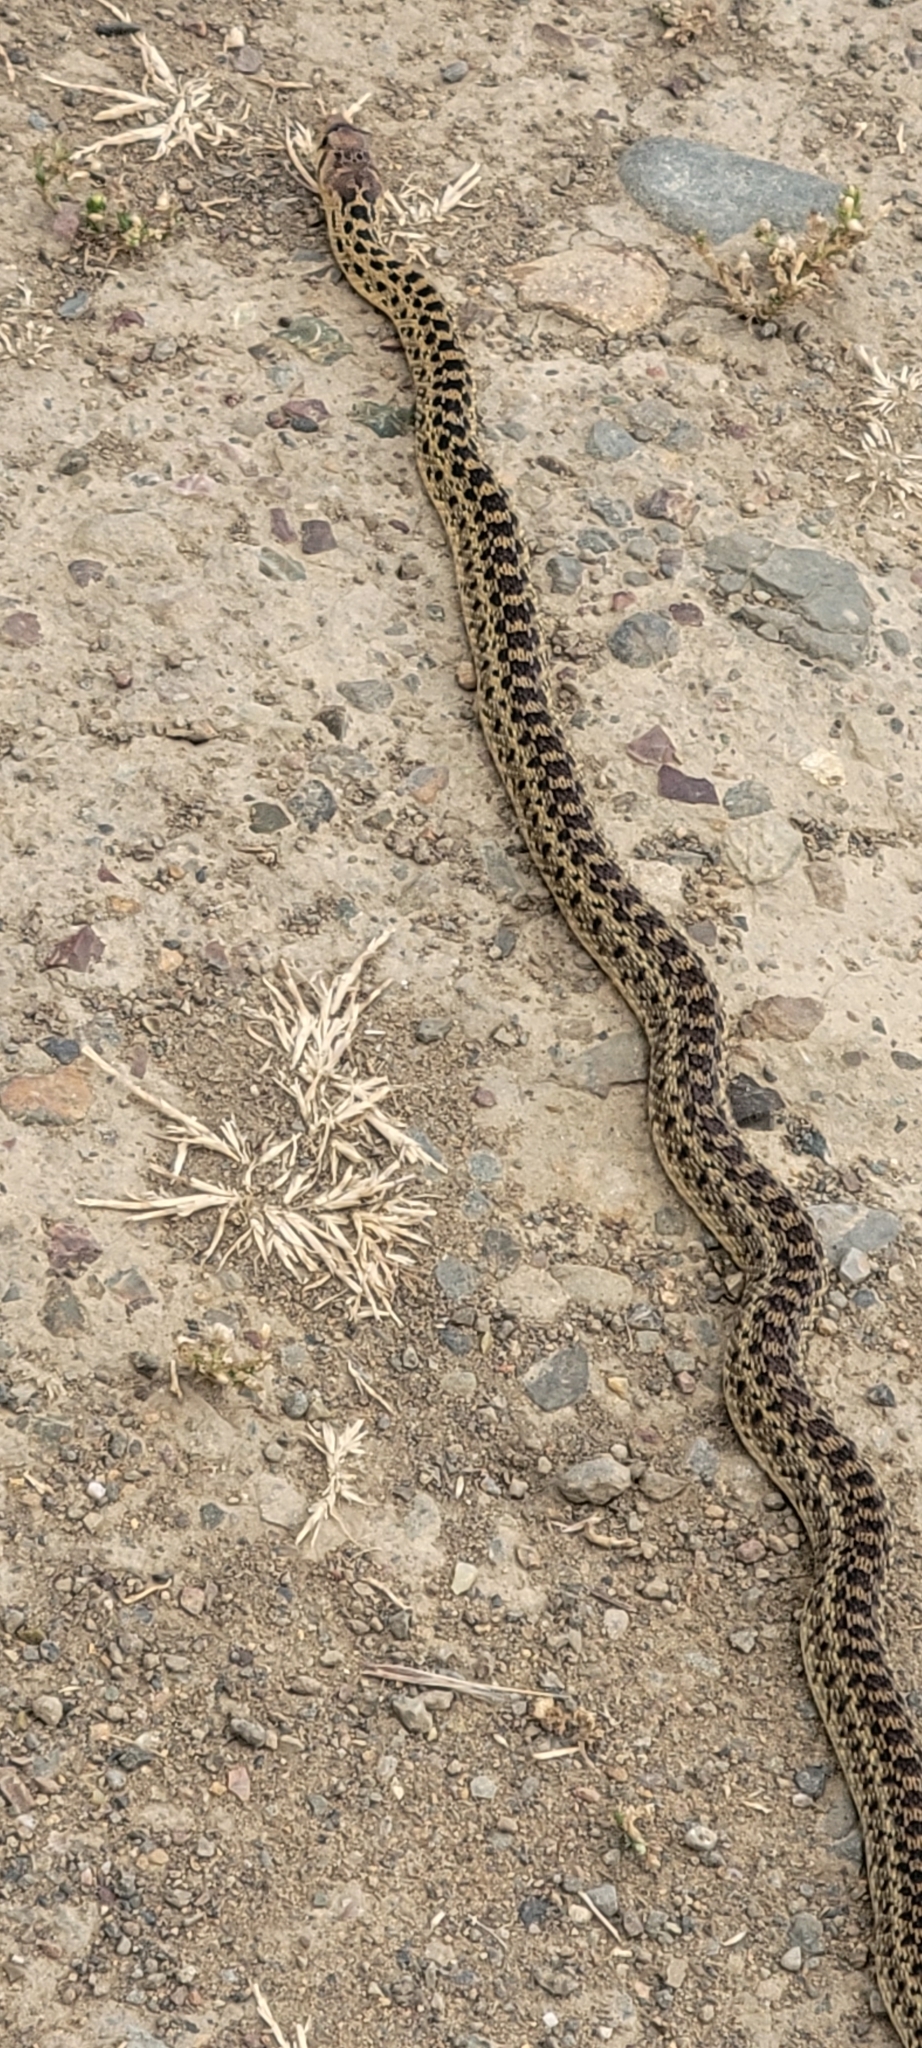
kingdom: Animalia
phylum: Chordata
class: Squamata
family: Colubridae
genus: Pituophis
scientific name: Pituophis catenifer
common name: Gopher snake
